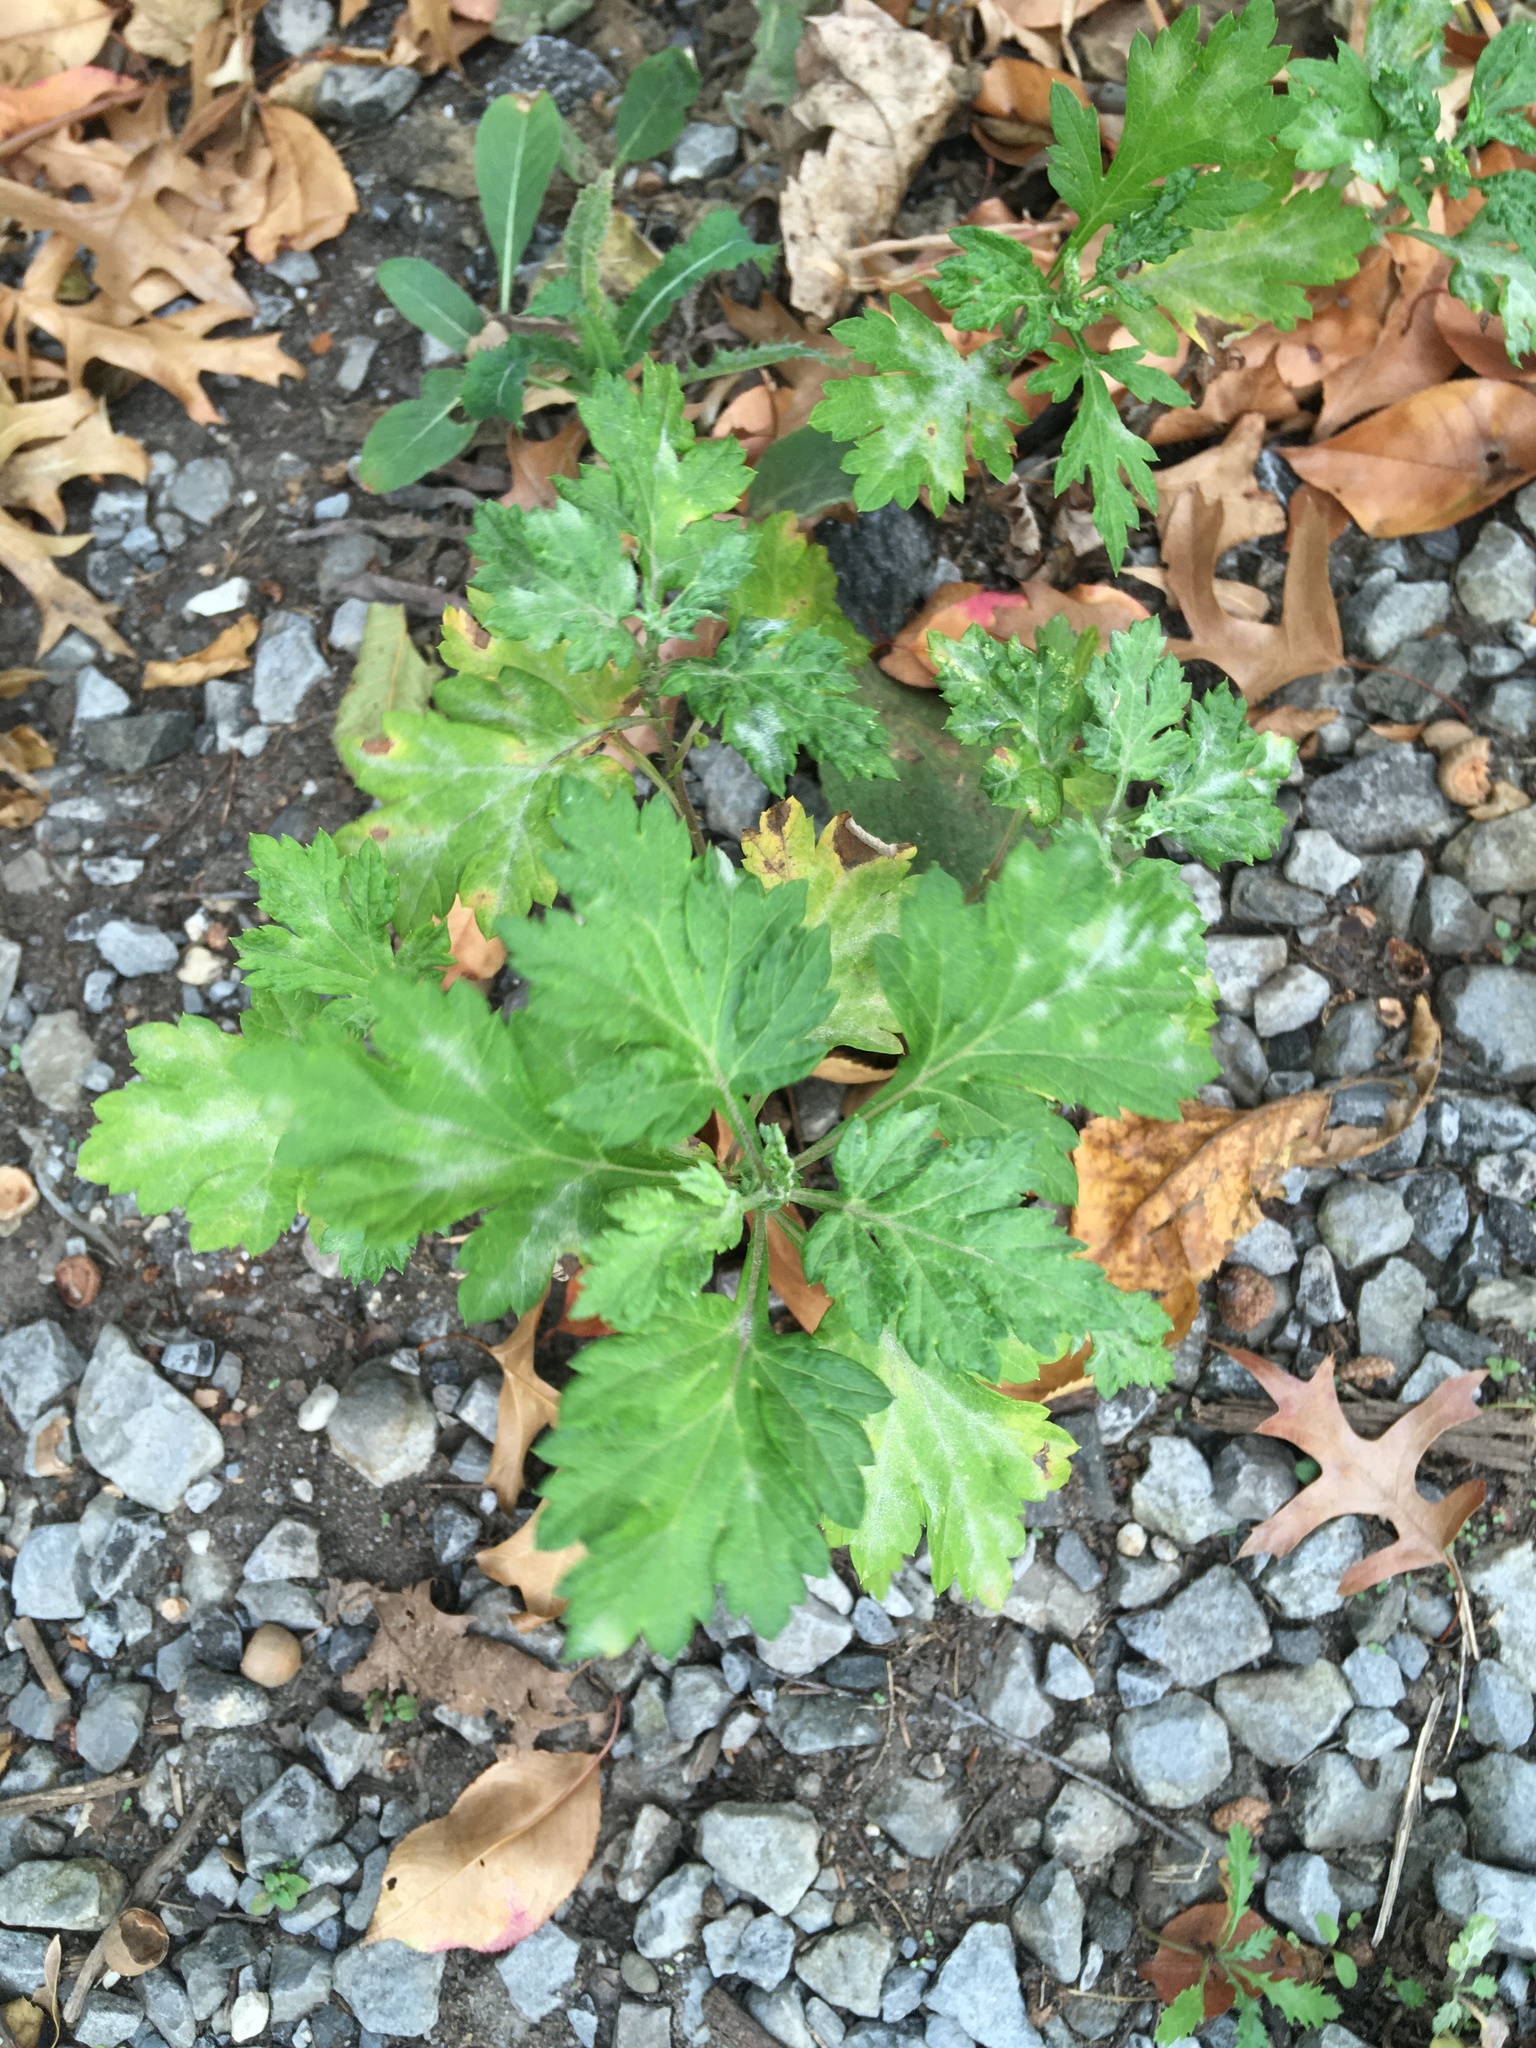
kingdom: Plantae
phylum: Tracheophyta
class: Magnoliopsida
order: Asterales
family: Asteraceae
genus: Artemisia
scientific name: Artemisia vulgaris
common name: Mugwort
